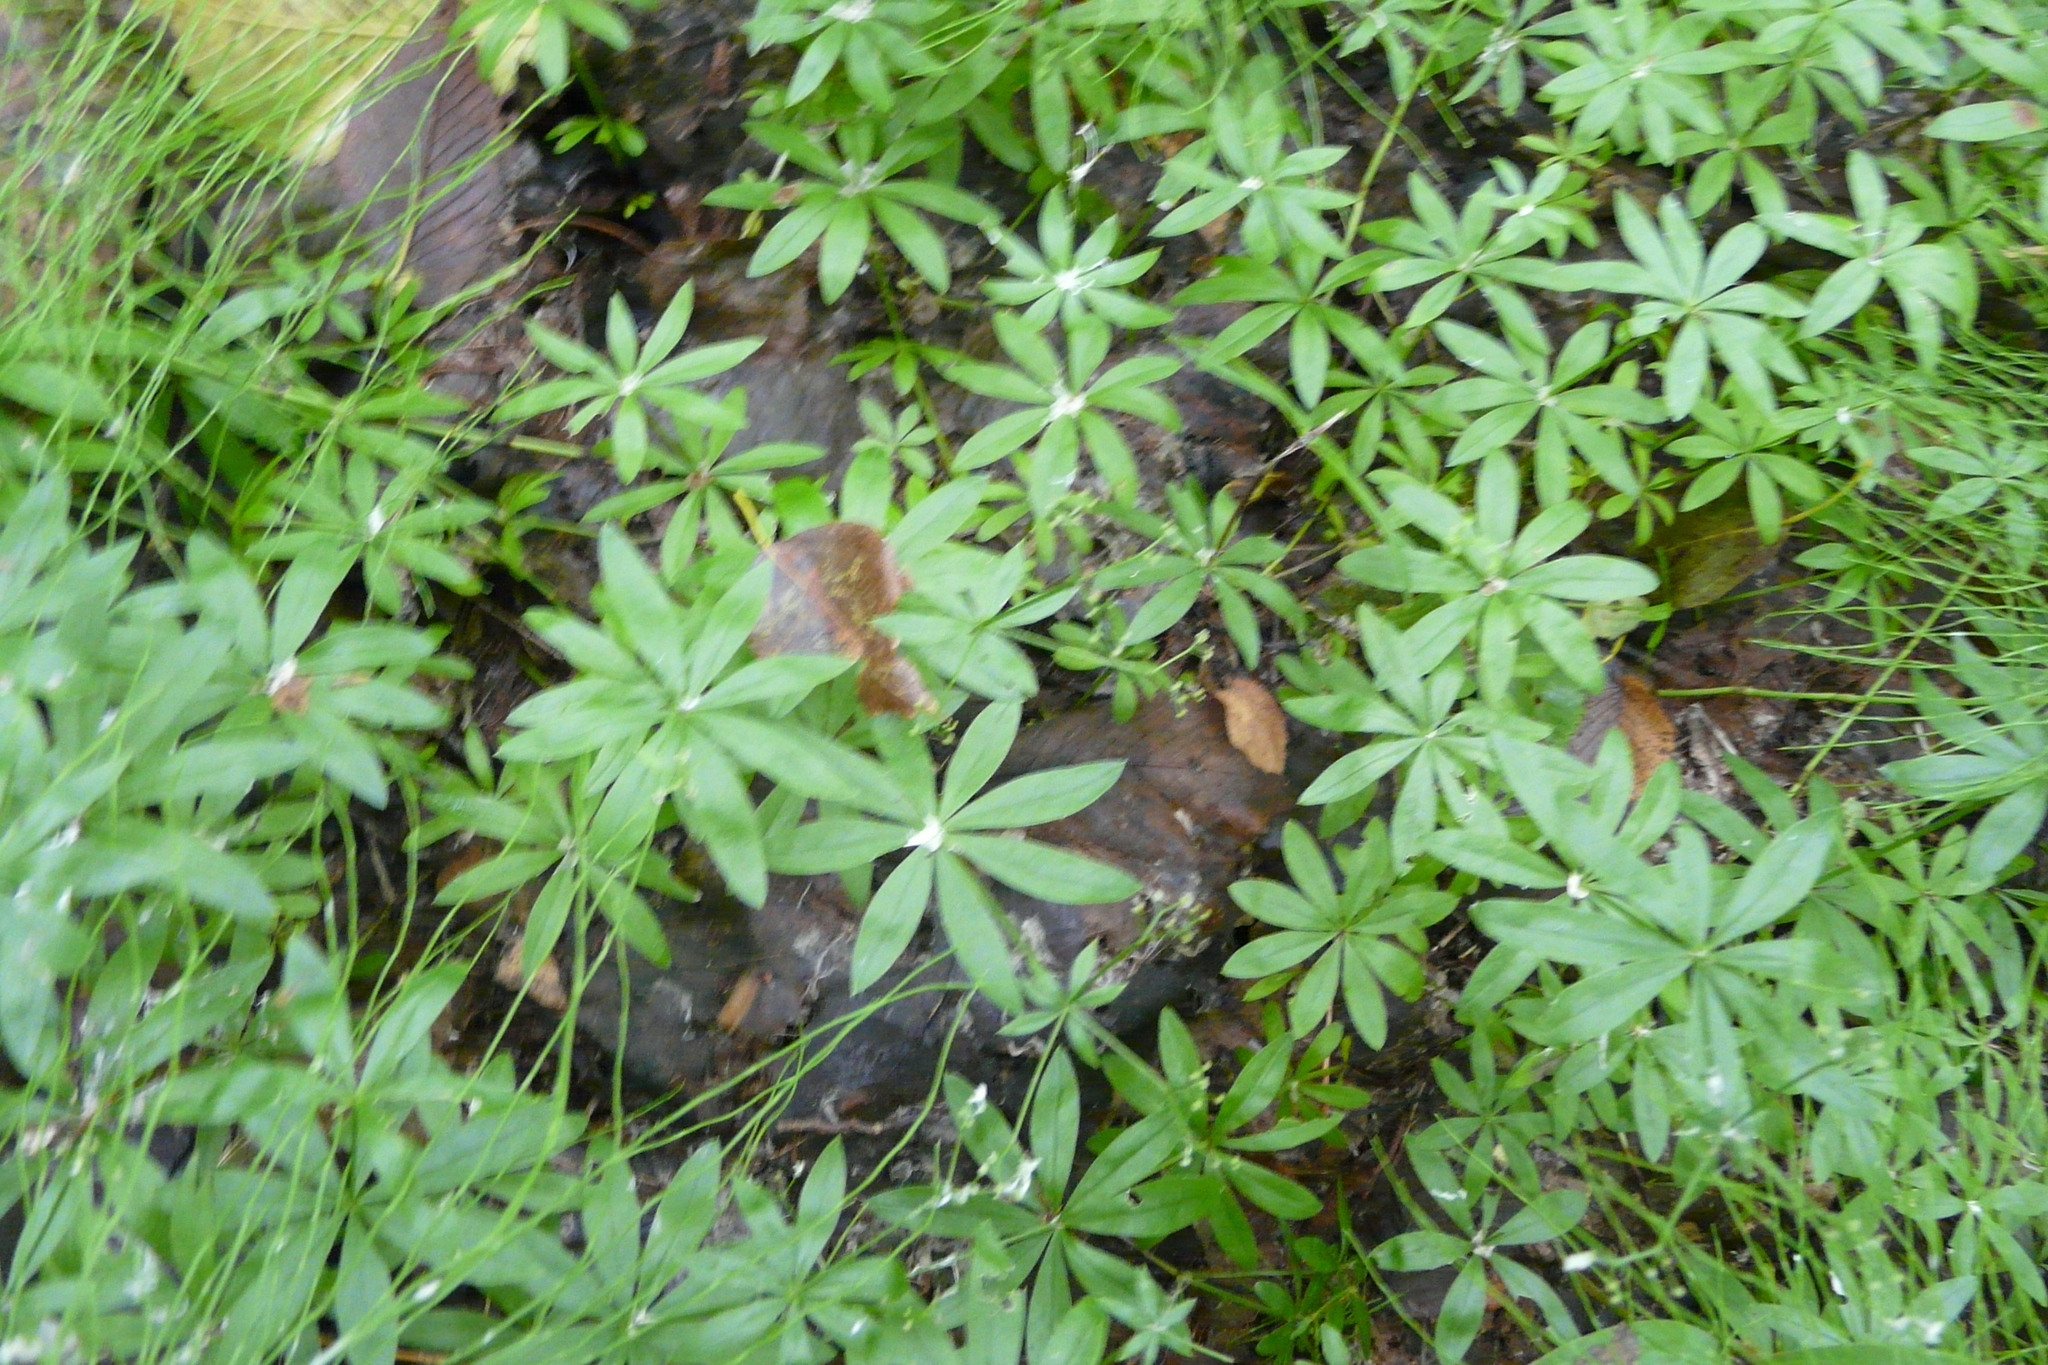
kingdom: Plantae
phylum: Tracheophyta
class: Magnoliopsida
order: Gentianales
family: Rubiaceae
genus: Galium
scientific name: Galium odoratum
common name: Sweet woodruff
